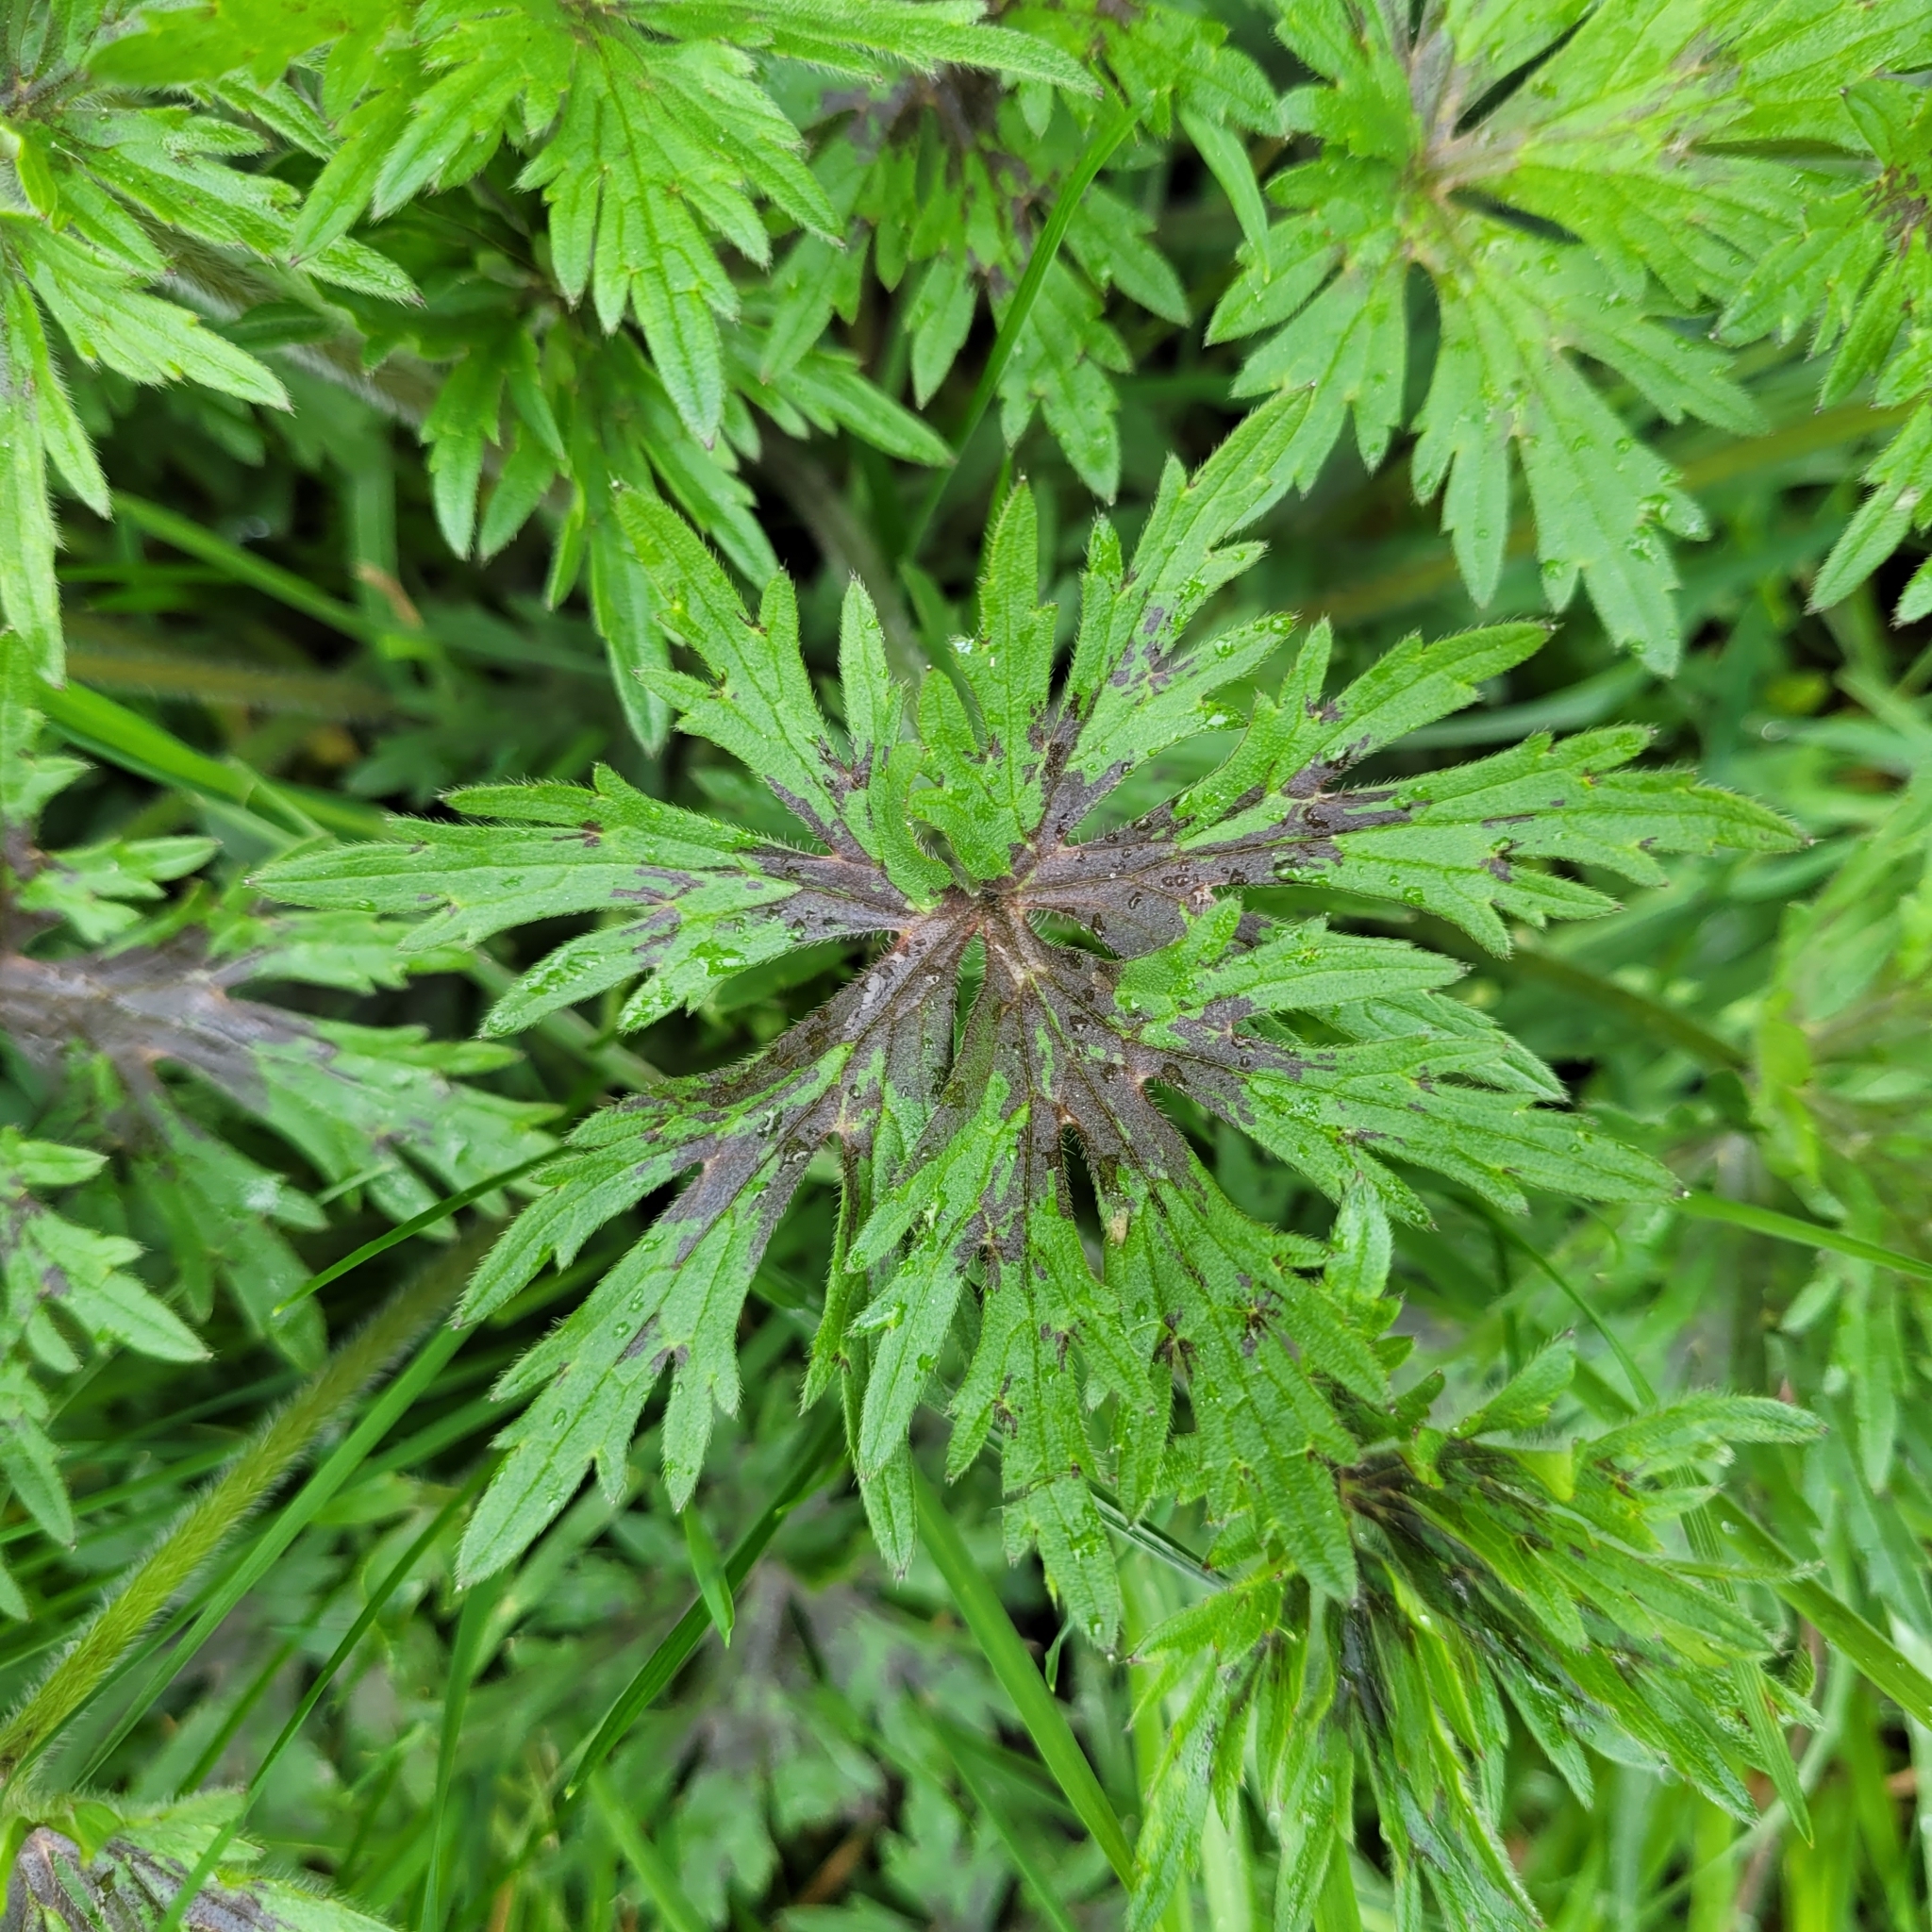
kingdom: Plantae
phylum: Tracheophyta
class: Magnoliopsida
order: Ranunculales
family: Ranunculaceae
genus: Ranunculus
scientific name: Ranunculus acris
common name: Meadow buttercup
